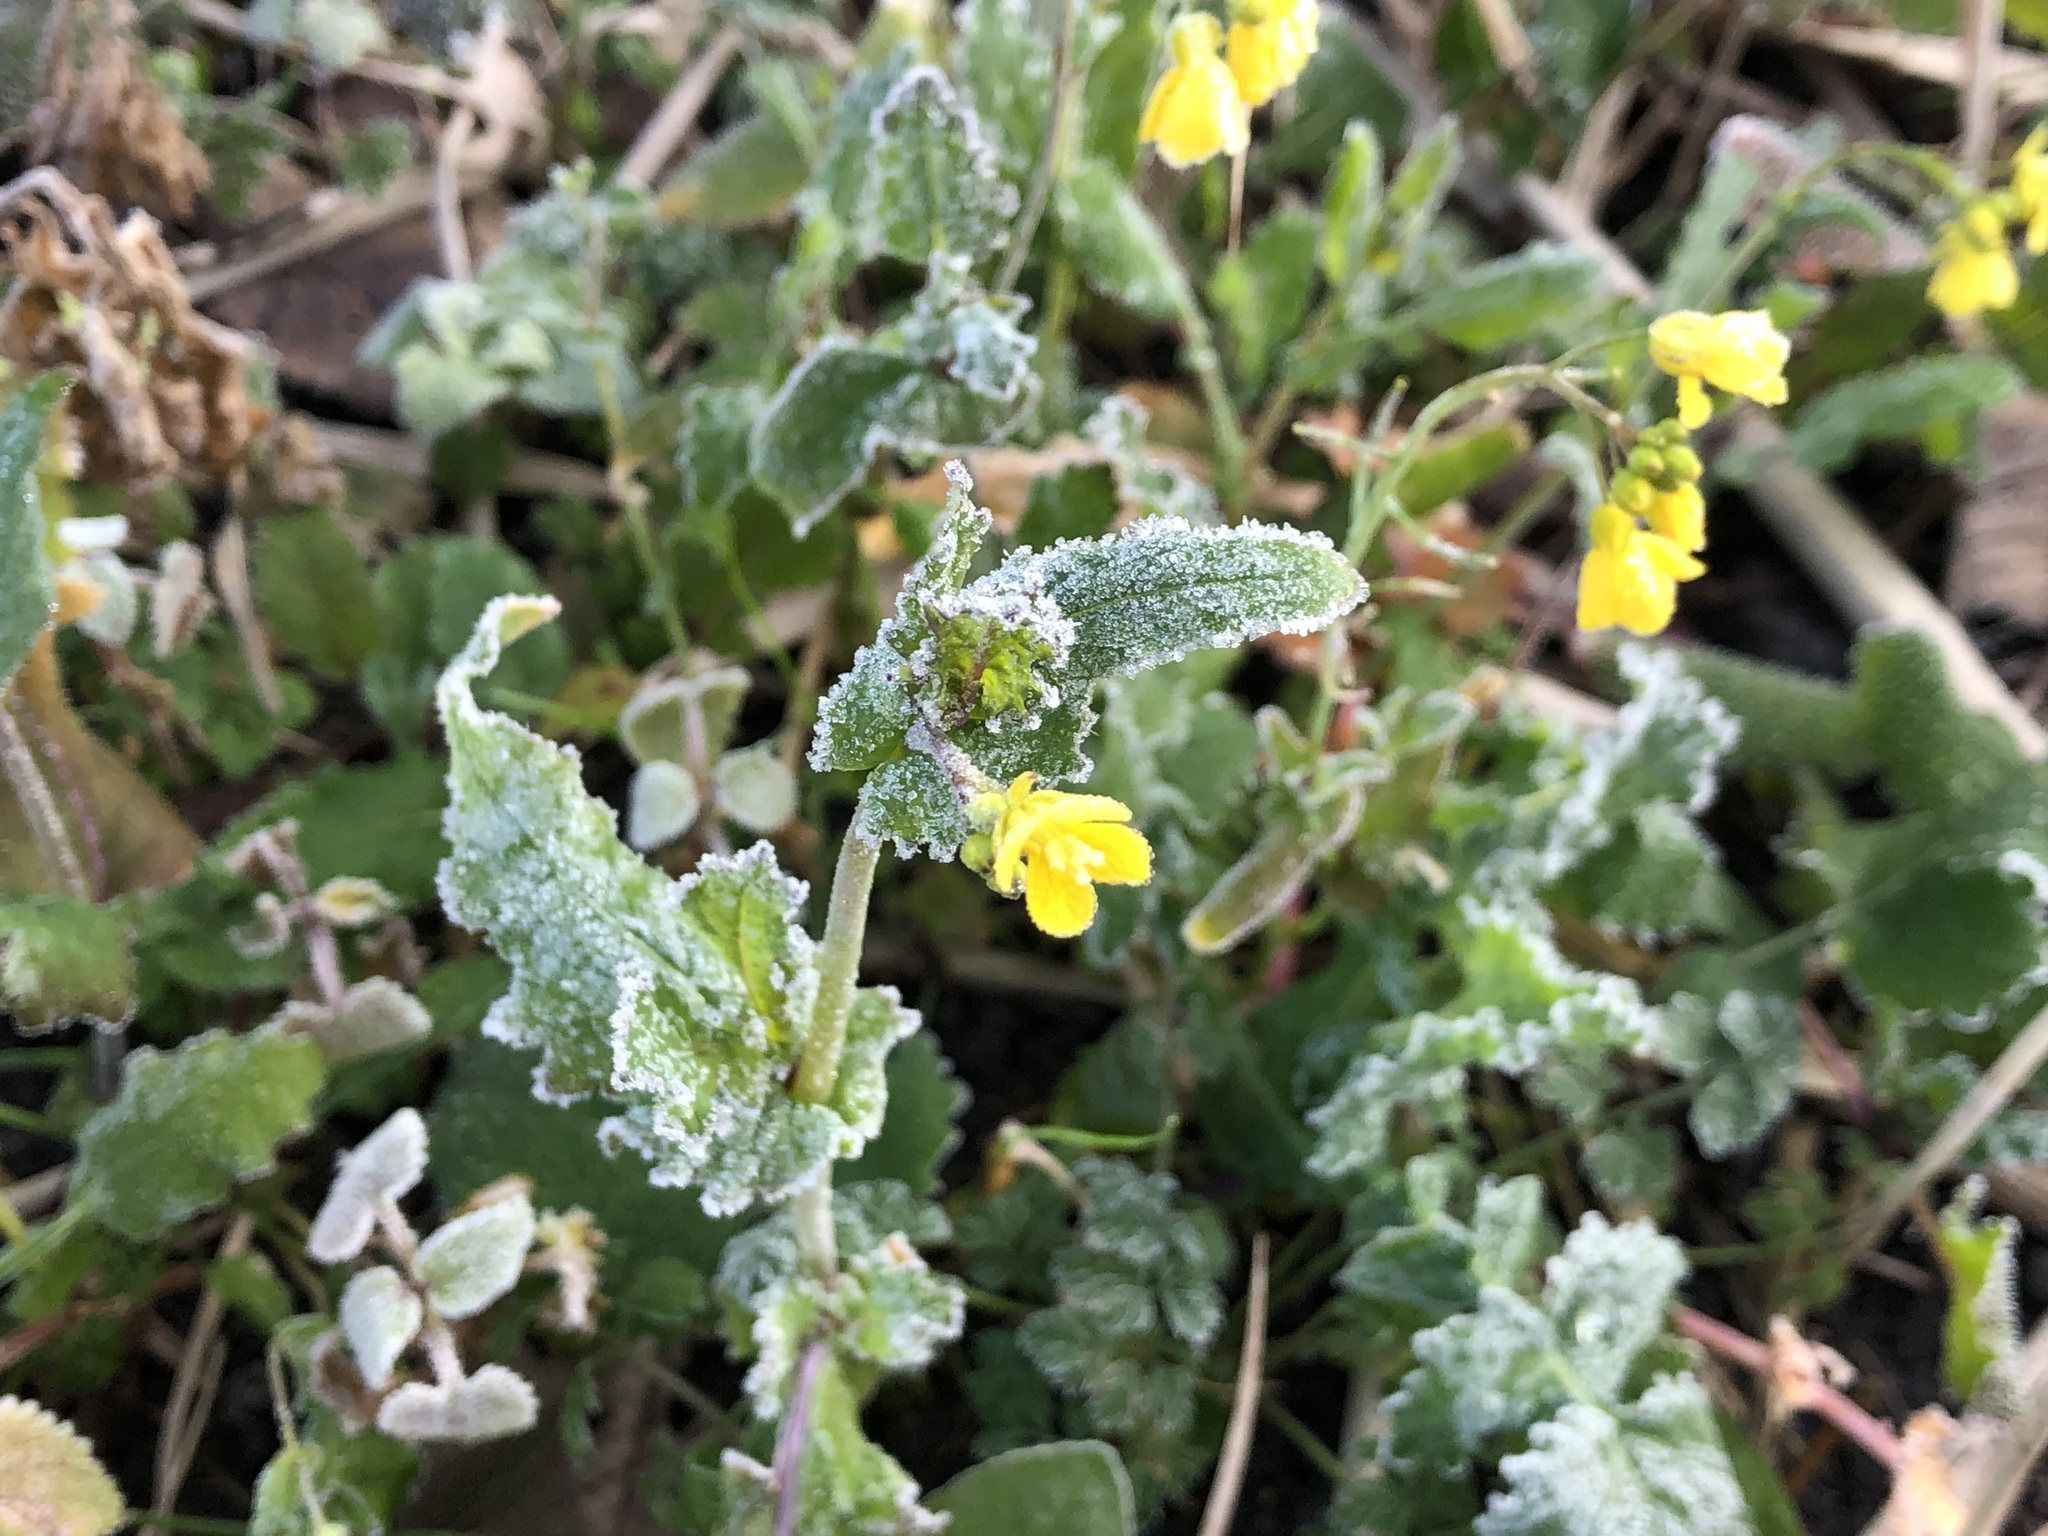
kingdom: Plantae
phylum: Tracheophyta
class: Magnoliopsida
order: Brassicales
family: Brassicaceae
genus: Brassica
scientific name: Brassica rapa
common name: Field mustard
